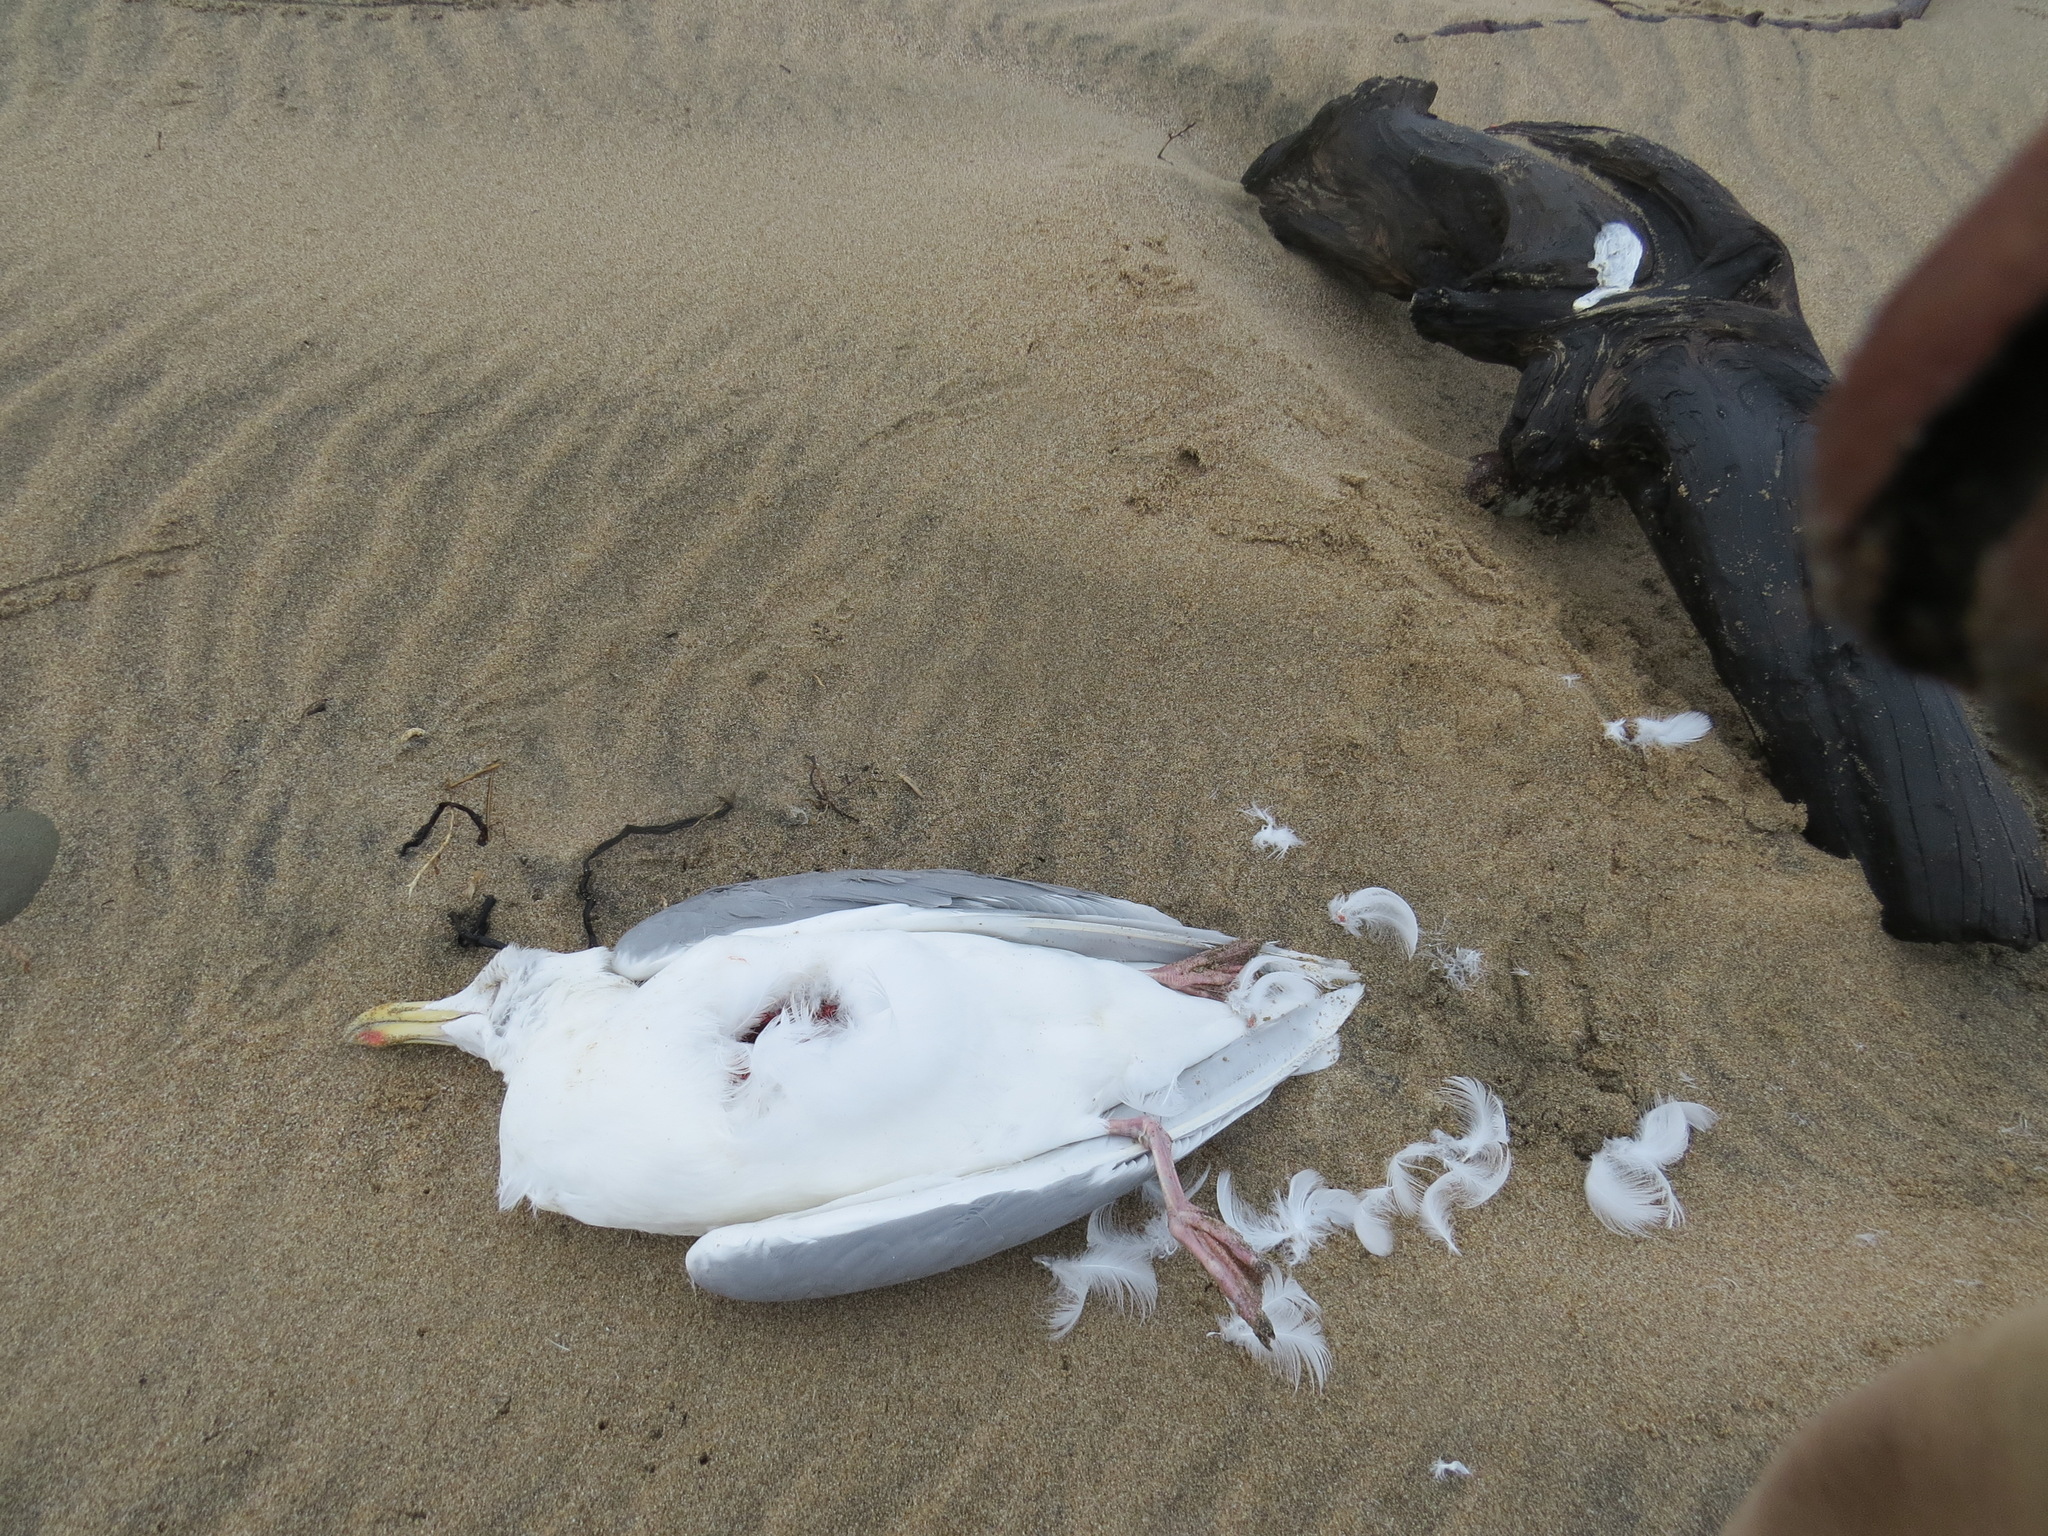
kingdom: Animalia
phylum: Chordata
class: Aves
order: Charadriiformes
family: Laridae
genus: Larus
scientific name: Larus glaucescens
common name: Glaucous-winged gull
